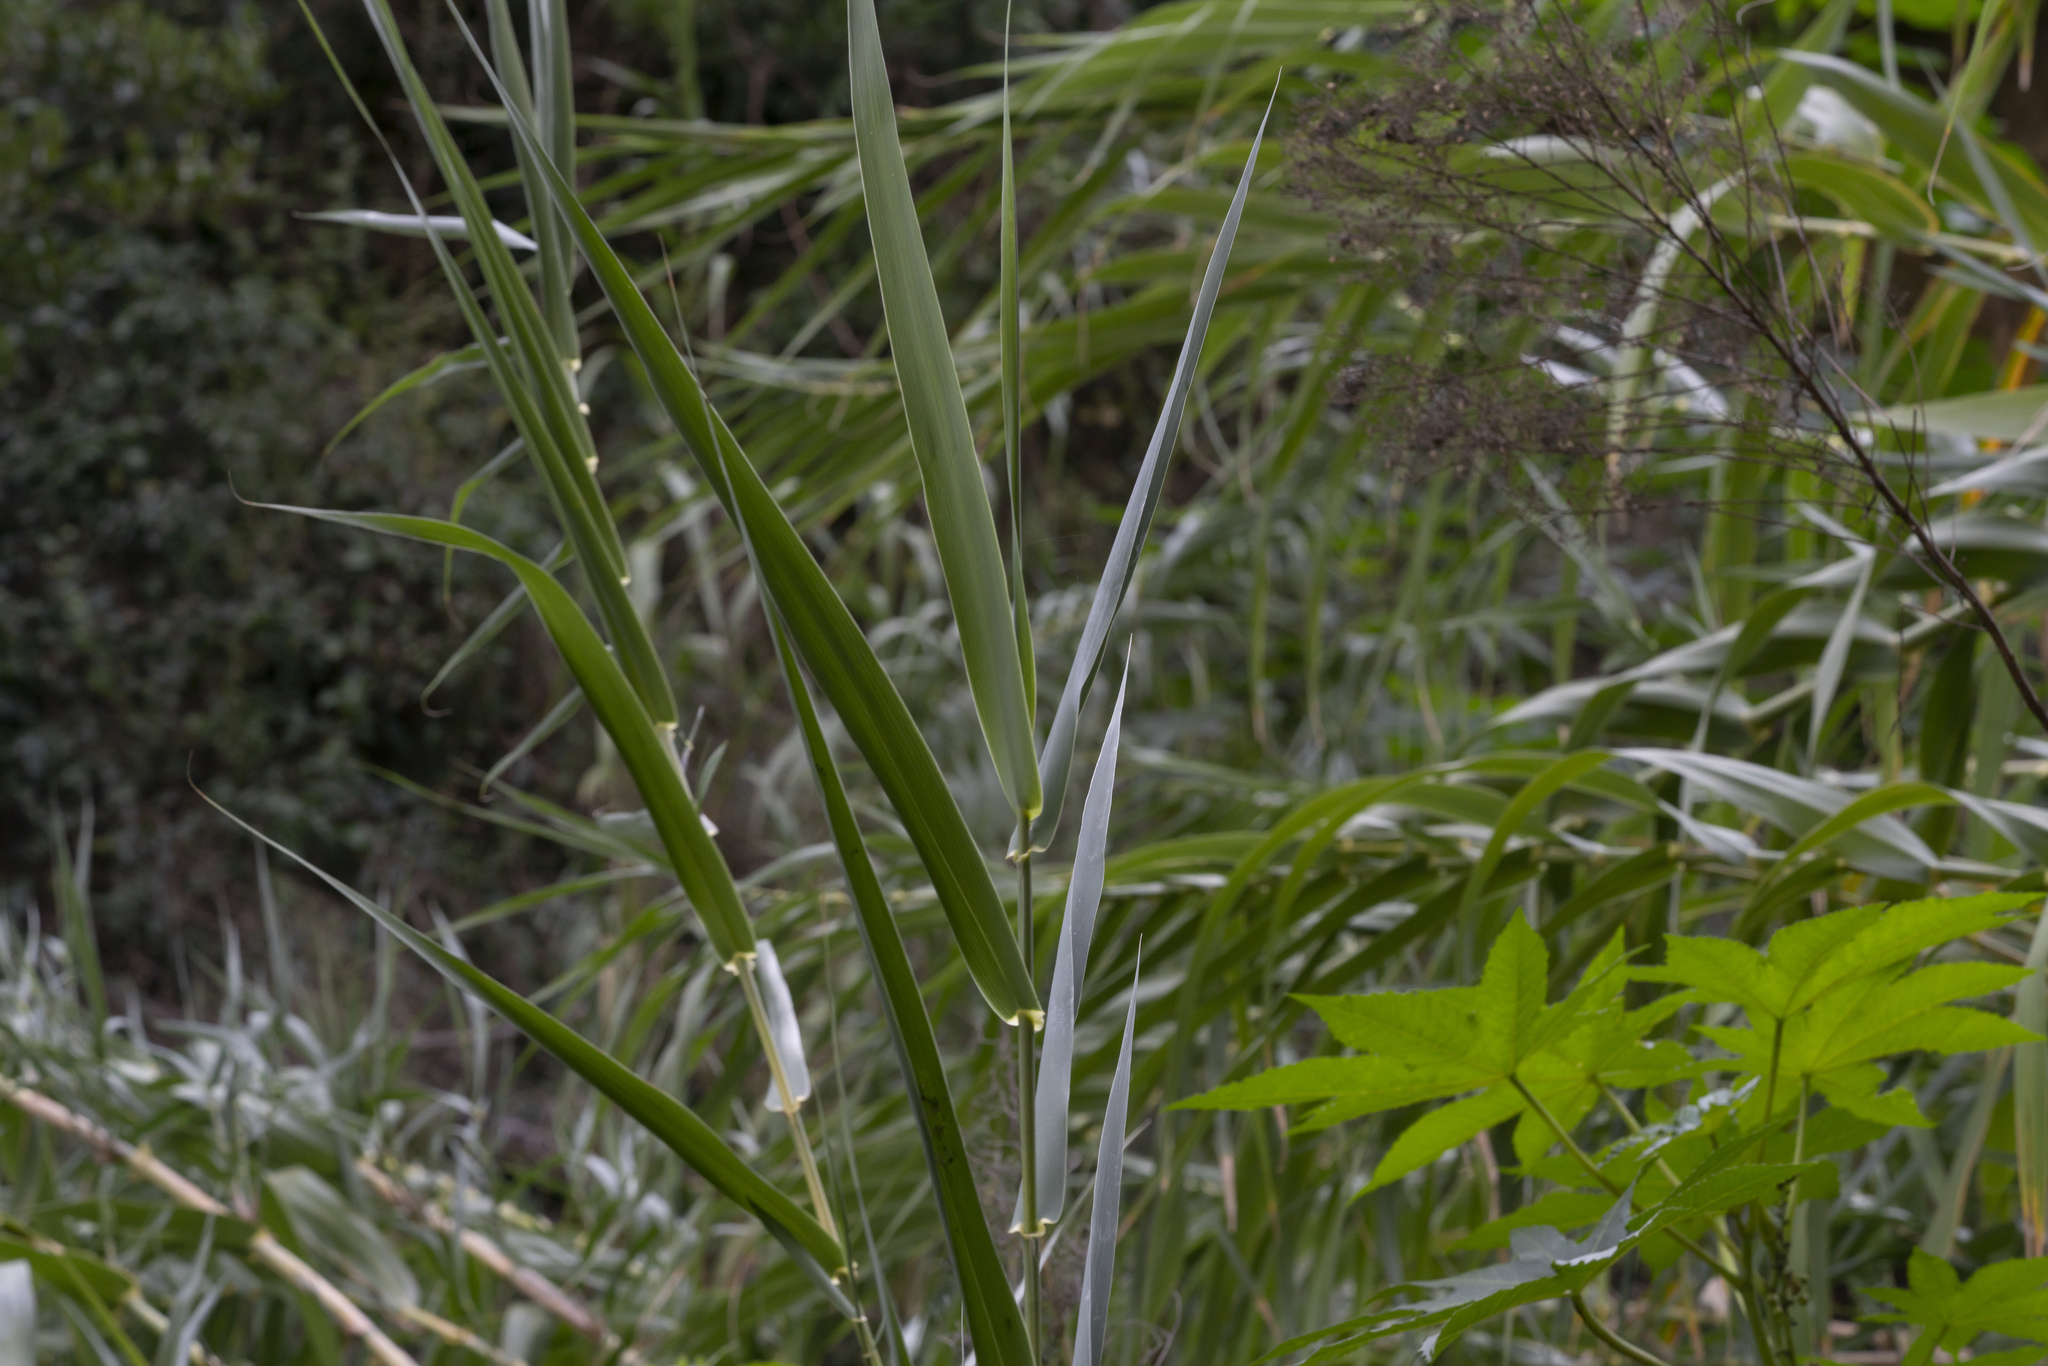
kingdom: Plantae
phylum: Tracheophyta
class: Liliopsida
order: Poales
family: Poaceae
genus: Arundo
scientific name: Arundo donax
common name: Giant reed
